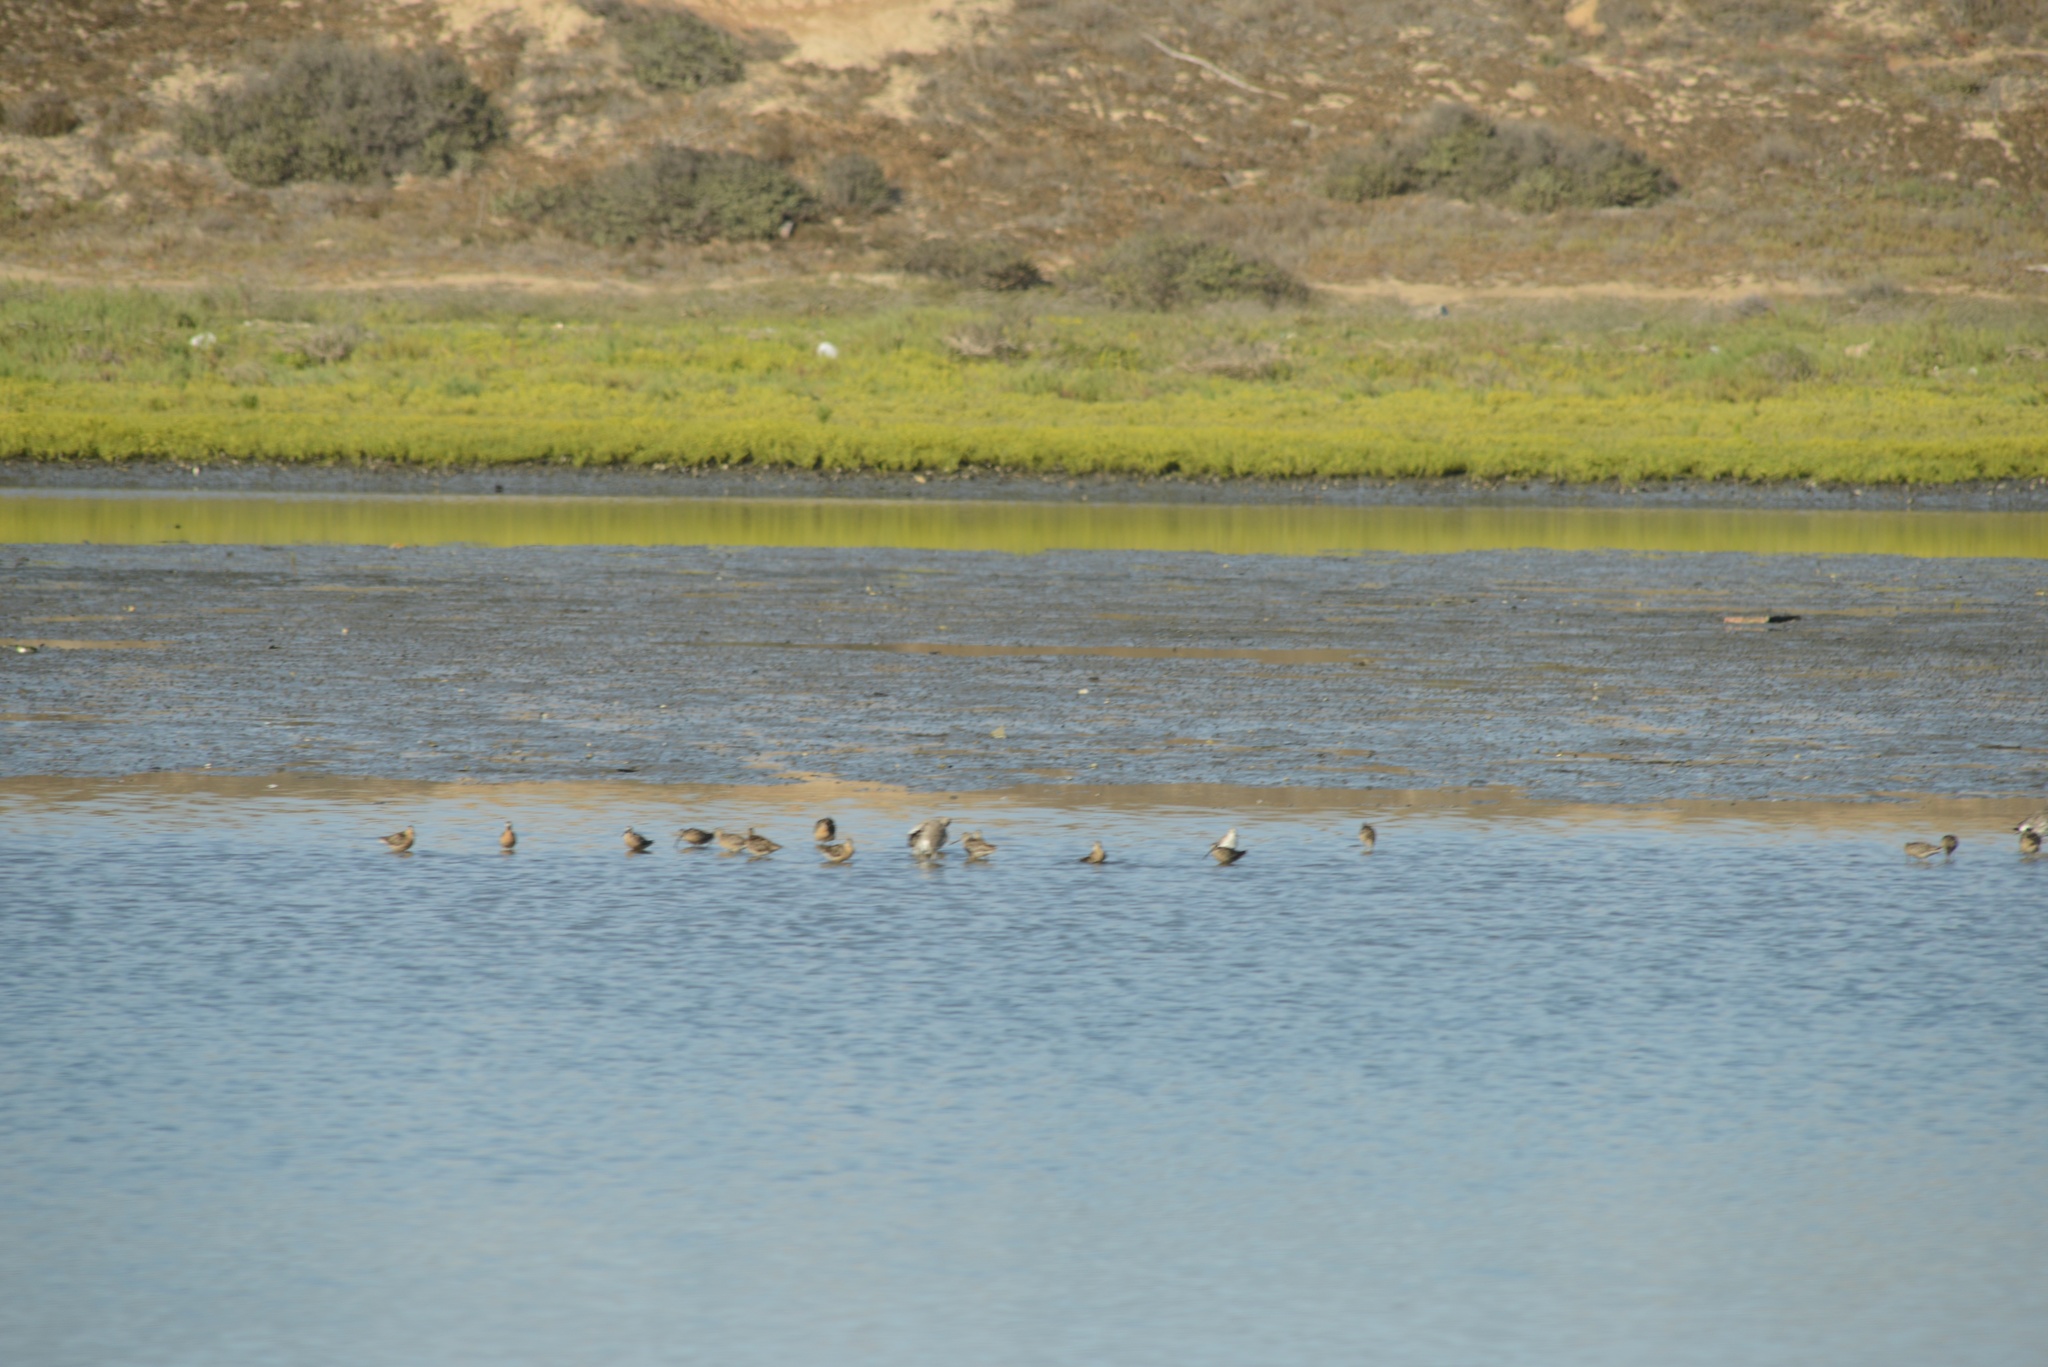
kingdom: Animalia
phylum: Chordata
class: Aves
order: Charadriiformes
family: Scolopacidae
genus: Limosa
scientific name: Limosa fedoa
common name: Marbled godwit
